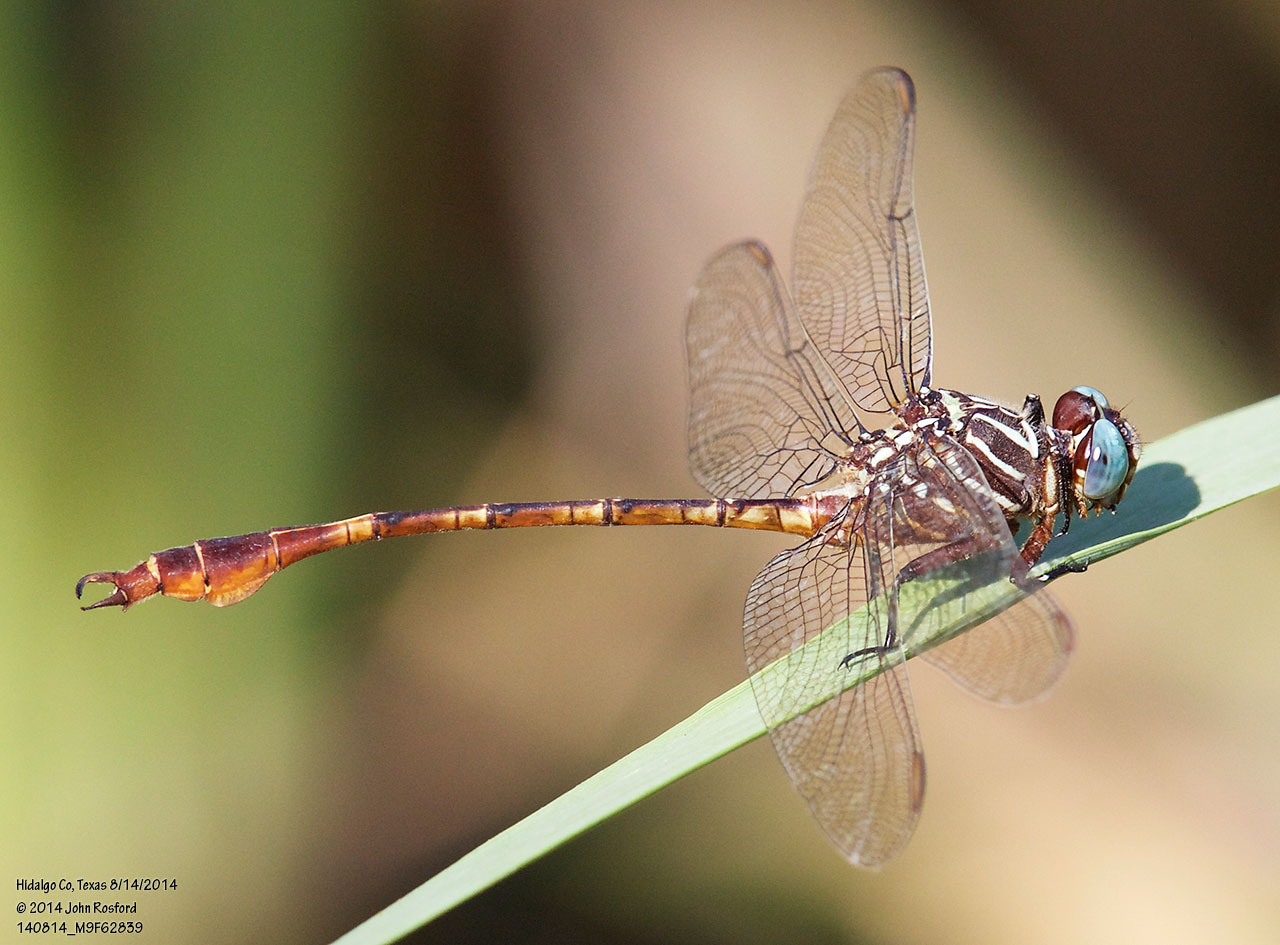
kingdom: Animalia
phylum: Arthropoda
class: Insecta
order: Odonata
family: Gomphidae
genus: Aphylla
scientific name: Aphylla protracta
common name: Narrow-striped forceptail
